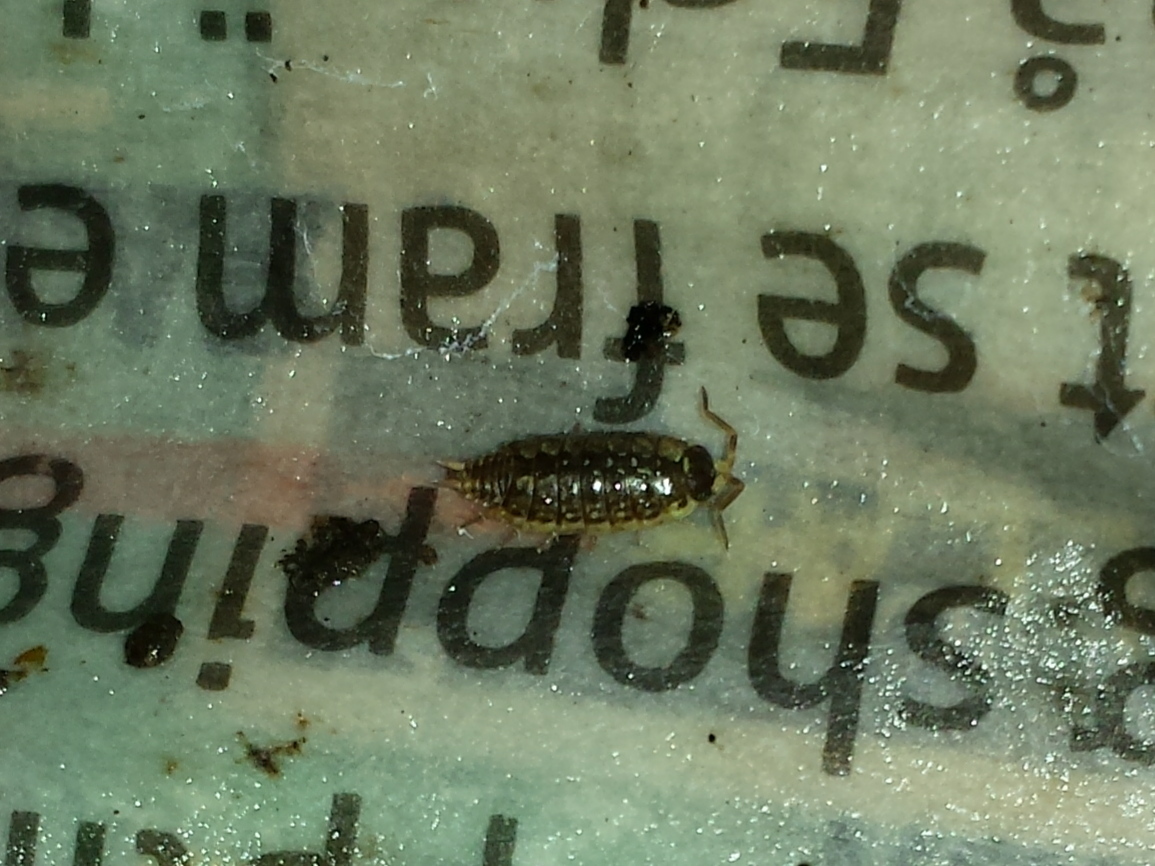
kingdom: Animalia
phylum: Arthropoda
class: Malacostraca
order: Isopoda
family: Philosciidae
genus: Philoscia
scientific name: Philoscia muscorum
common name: Common striped woodlouse
